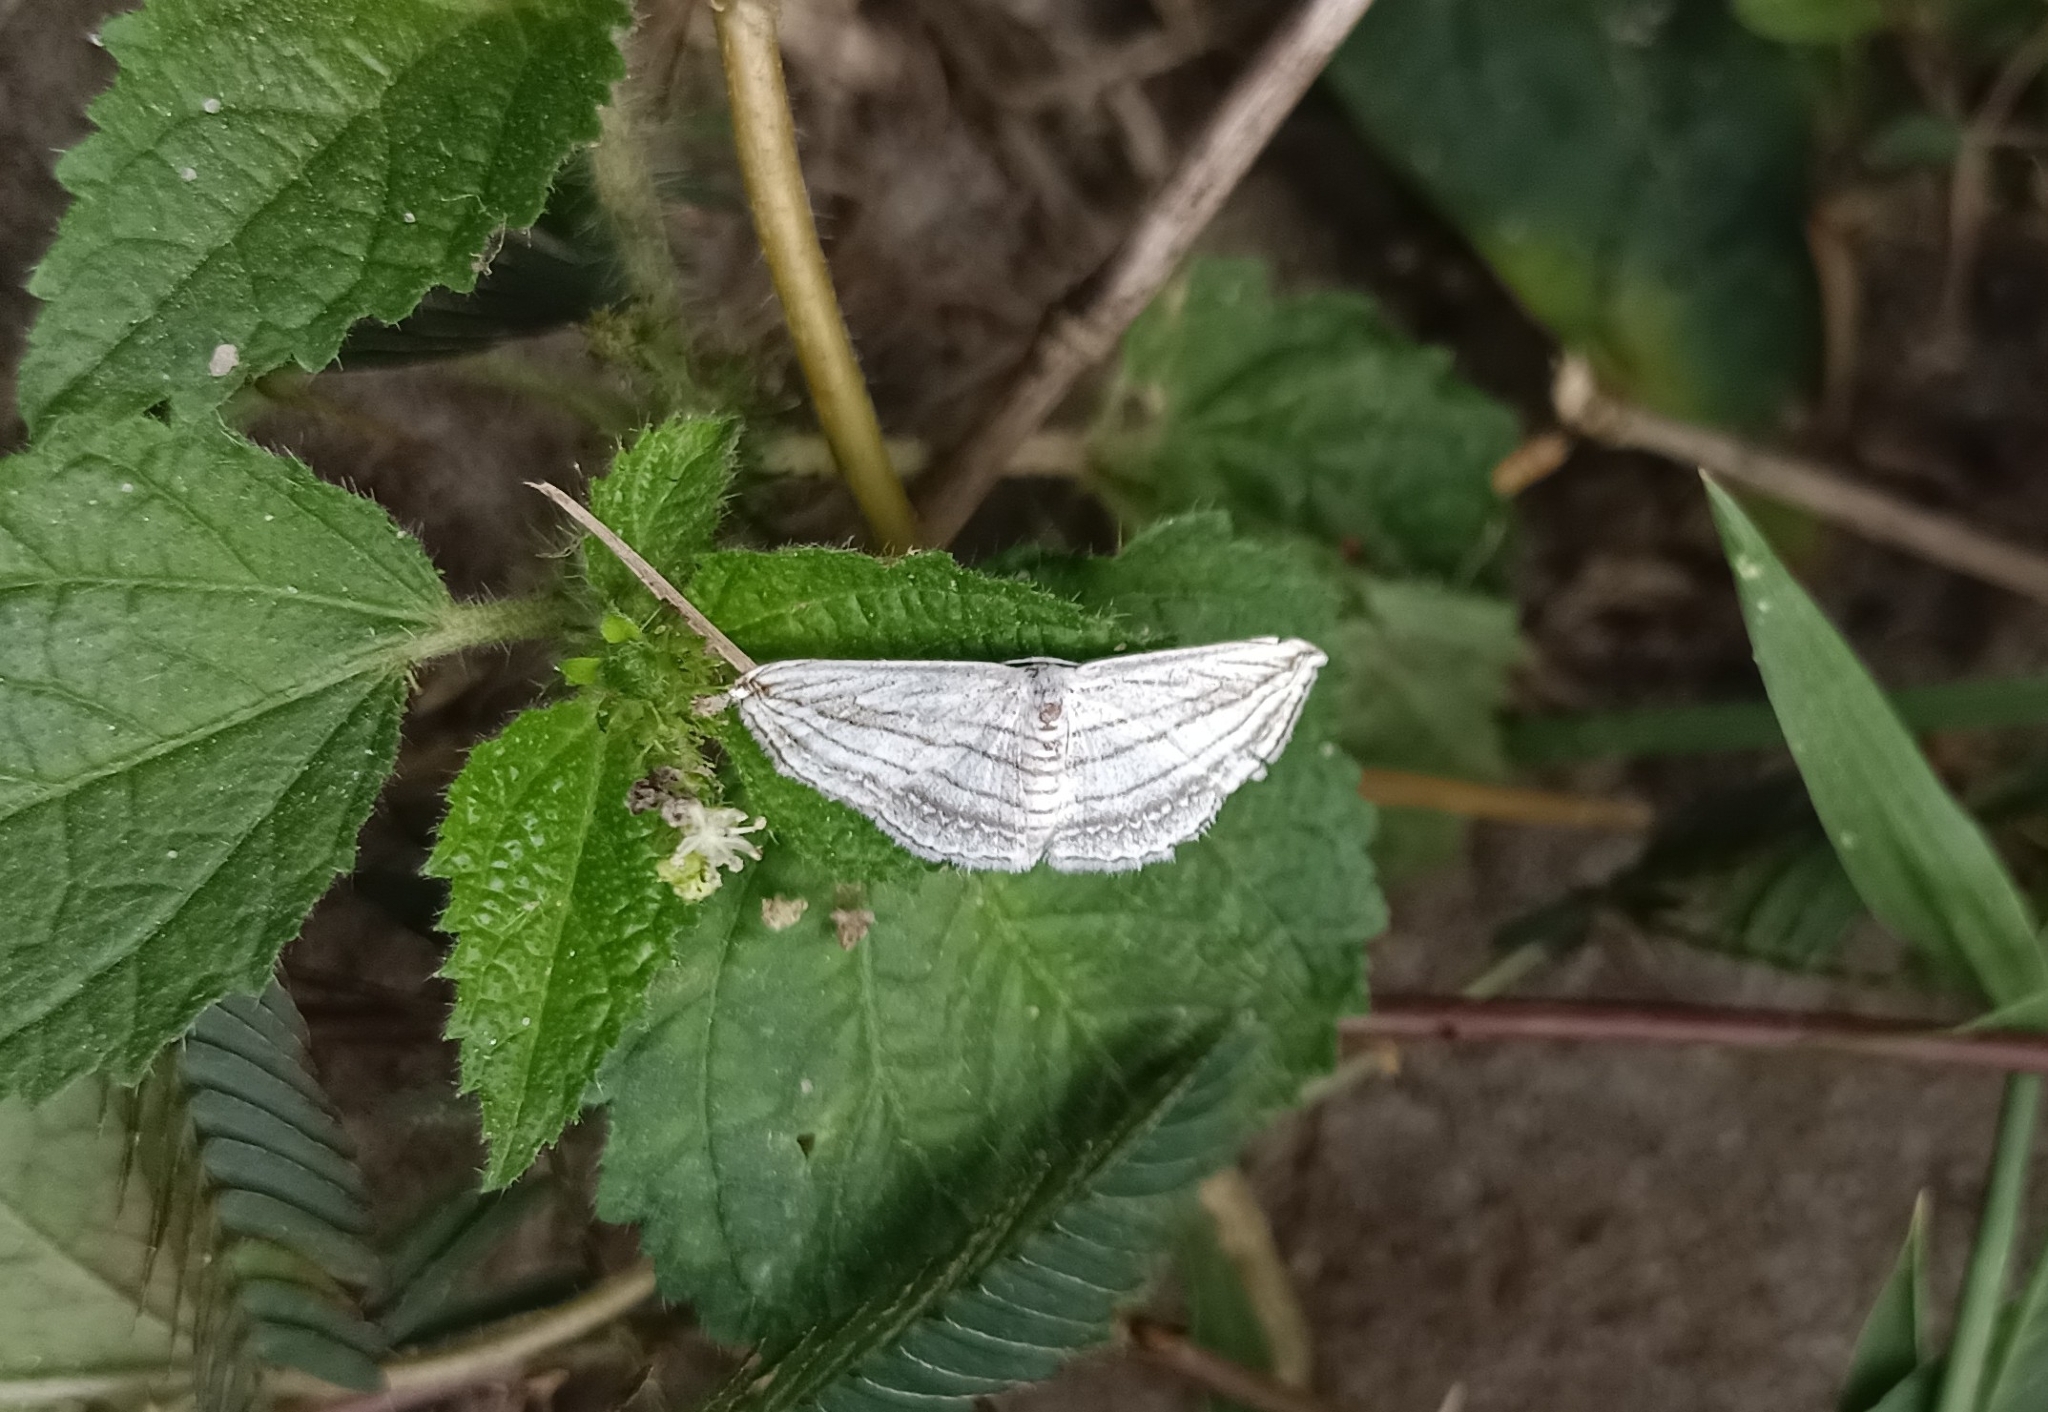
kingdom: Animalia
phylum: Arthropoda
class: Insecta
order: Lepidoptera
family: Geometridae
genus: Scopula
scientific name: Scopula opicata
